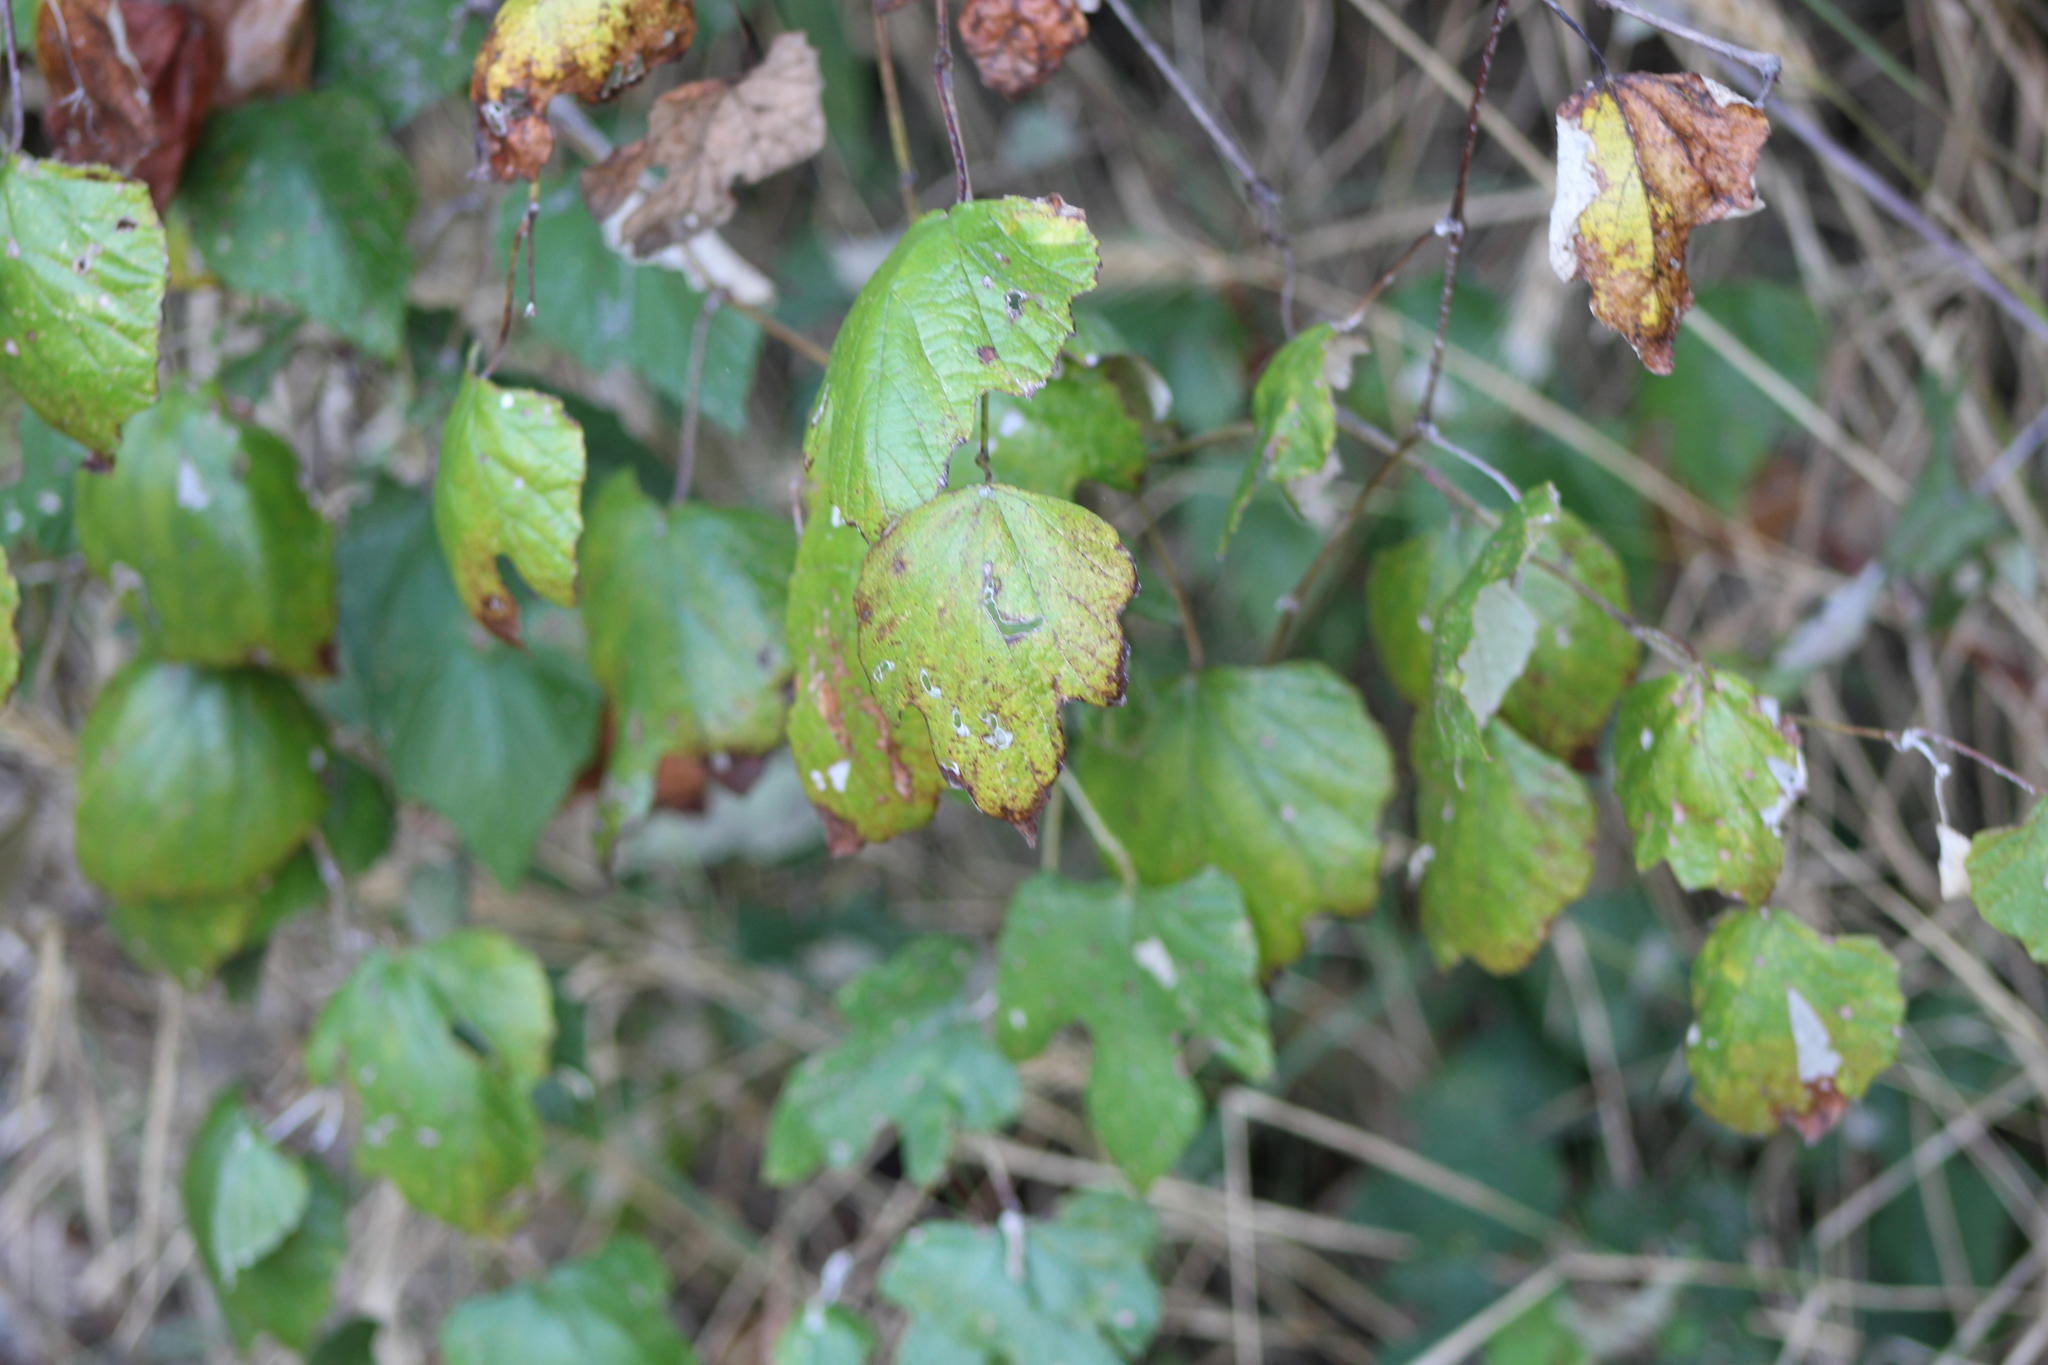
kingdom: Plantae
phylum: Tracheophyta
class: Magnoliopsida
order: Vitales
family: Vitaceae
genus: Vitis
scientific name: Vitis mustangensis
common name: Mustang grape
